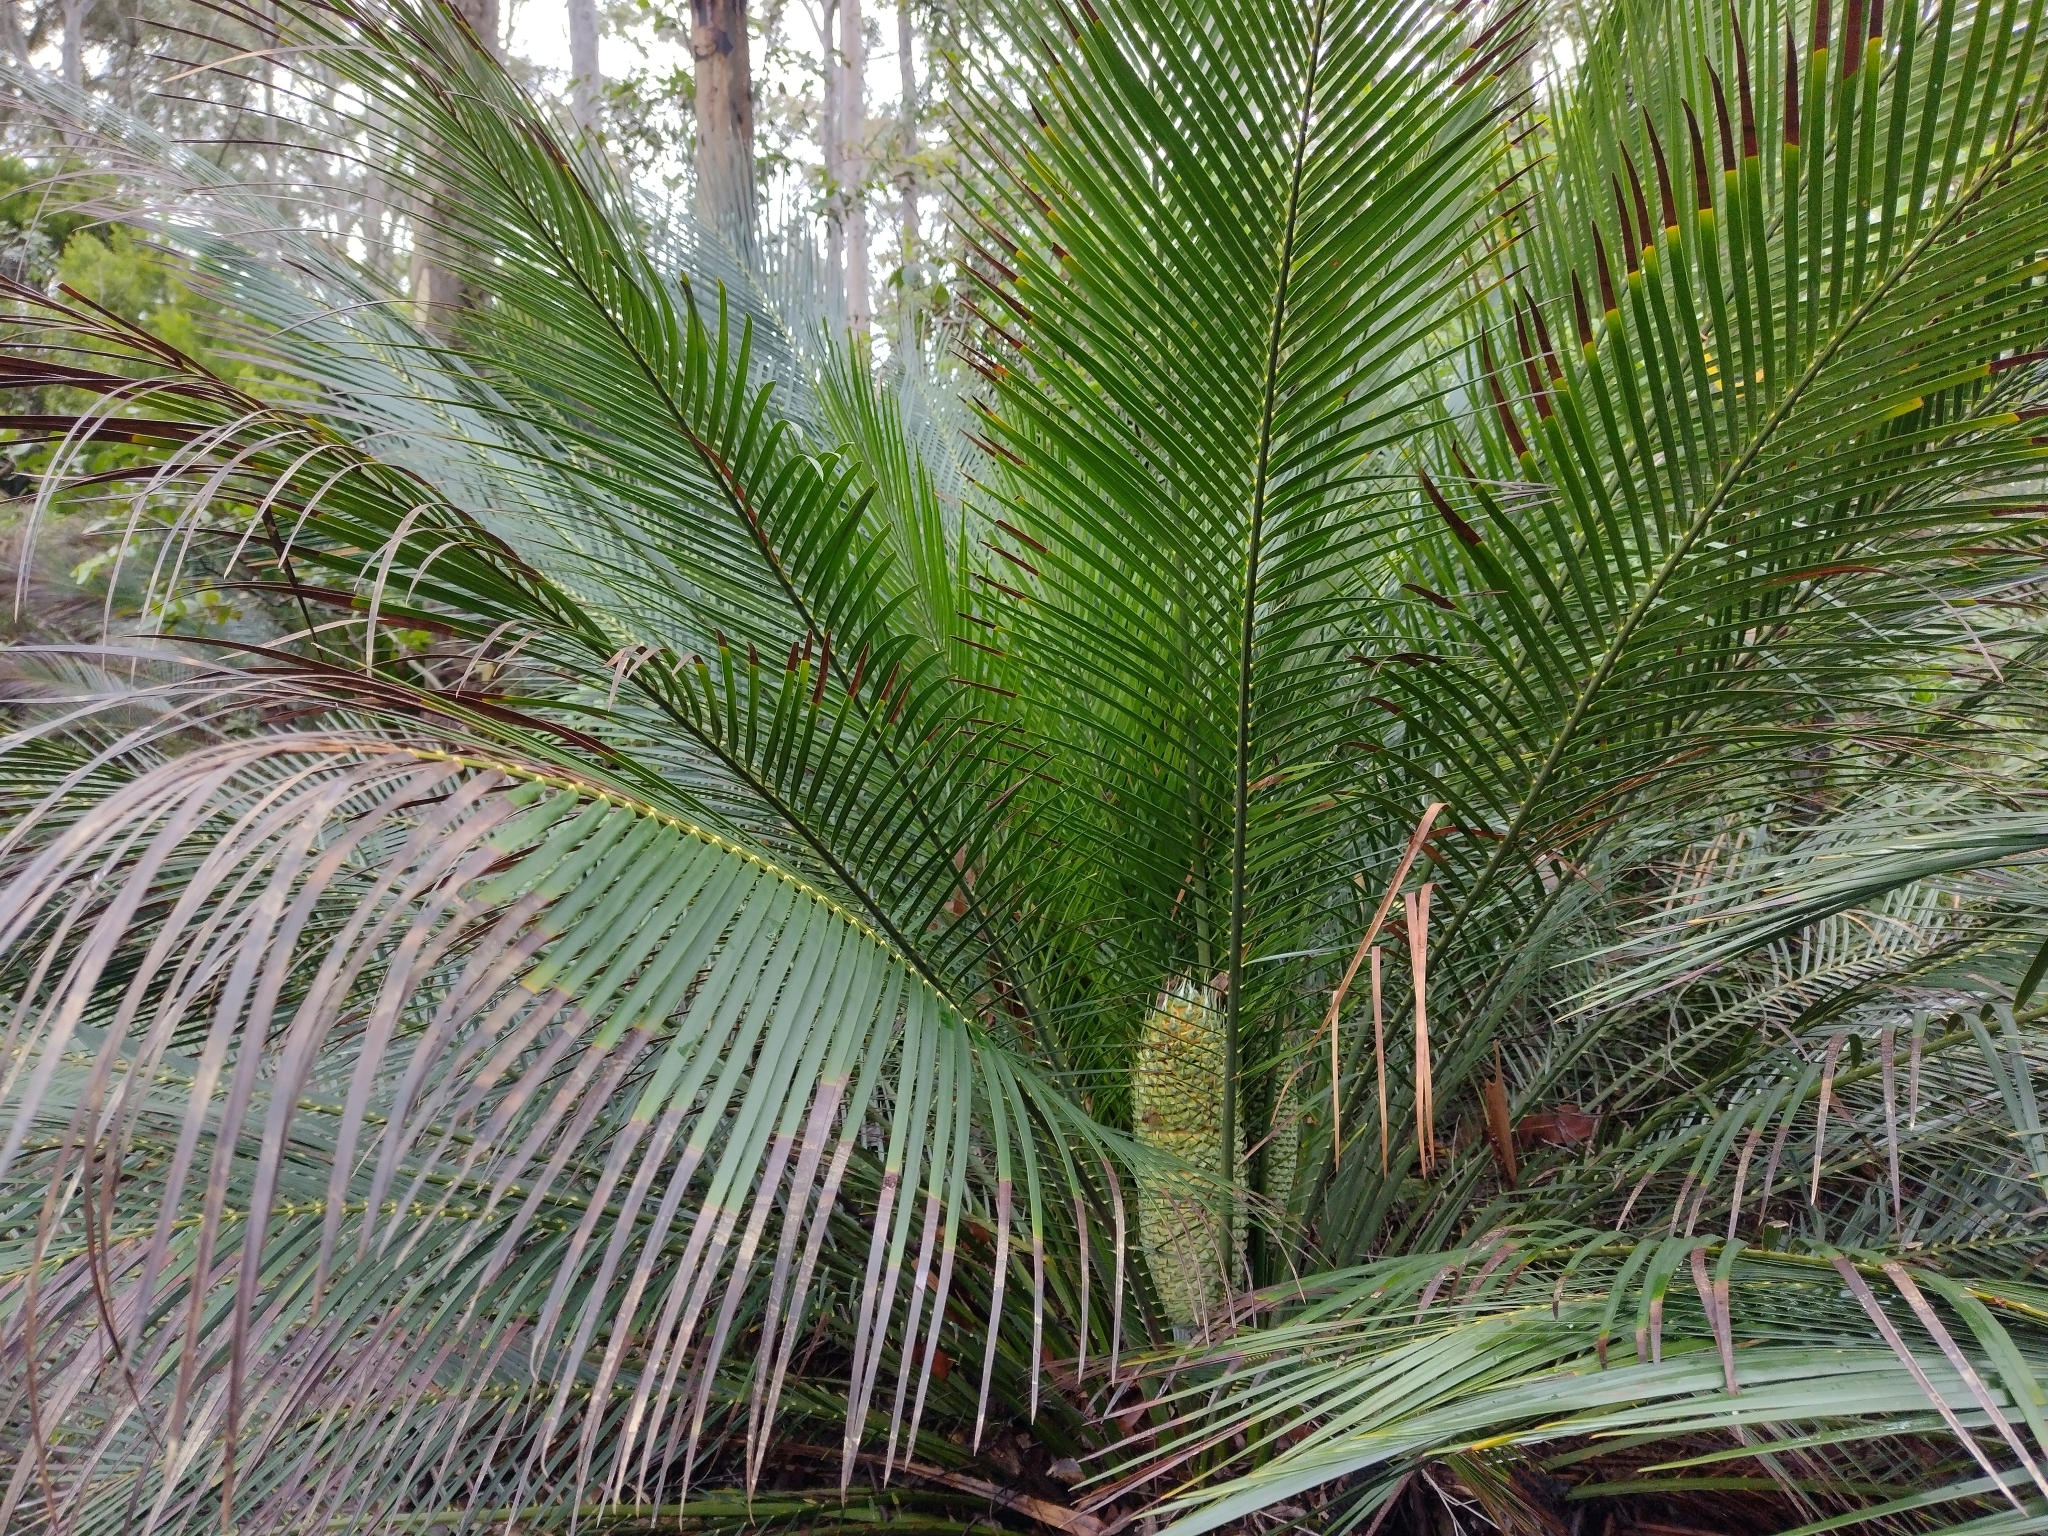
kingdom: Plantae
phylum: Tracheophyta
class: Cycadopsida
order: Cycadales
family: Zamiaceae
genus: Macrozamia
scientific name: Macrozamia communis
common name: Burrawong
